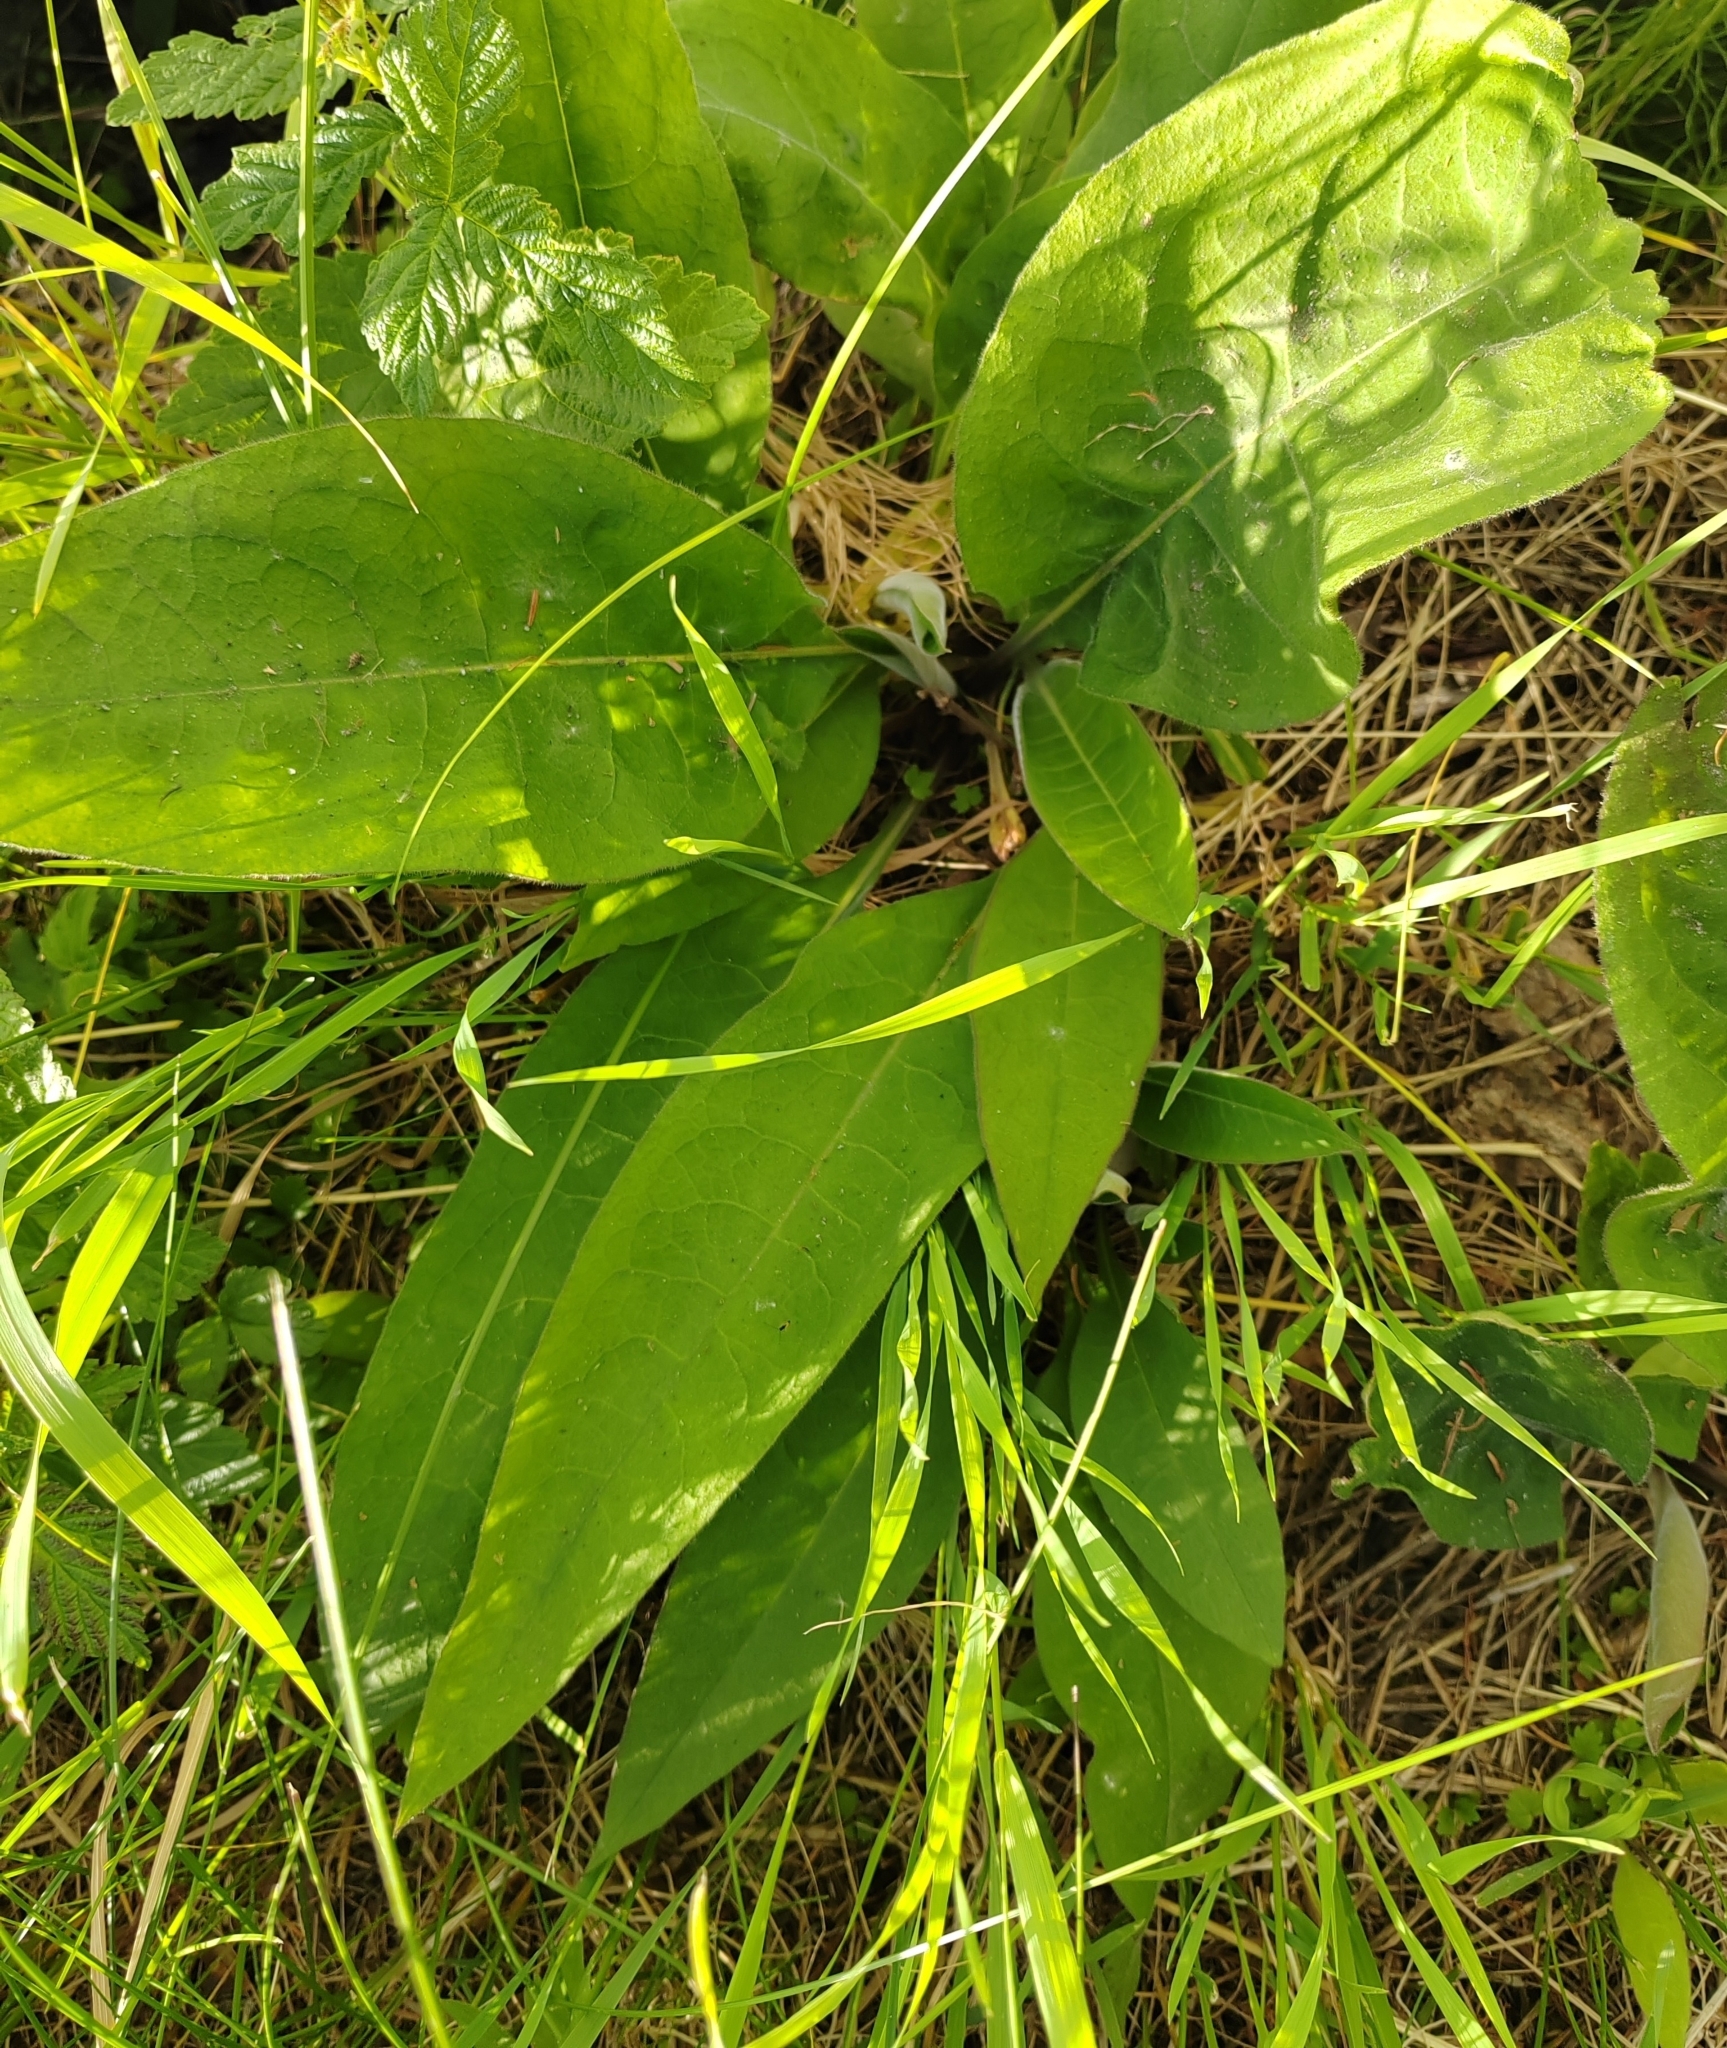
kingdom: Plantae
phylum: Tracheophyta
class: Magnoliopsida
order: Boraginales
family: Boraginaceae
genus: Pulmonaria
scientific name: Pulmonaria mollis
